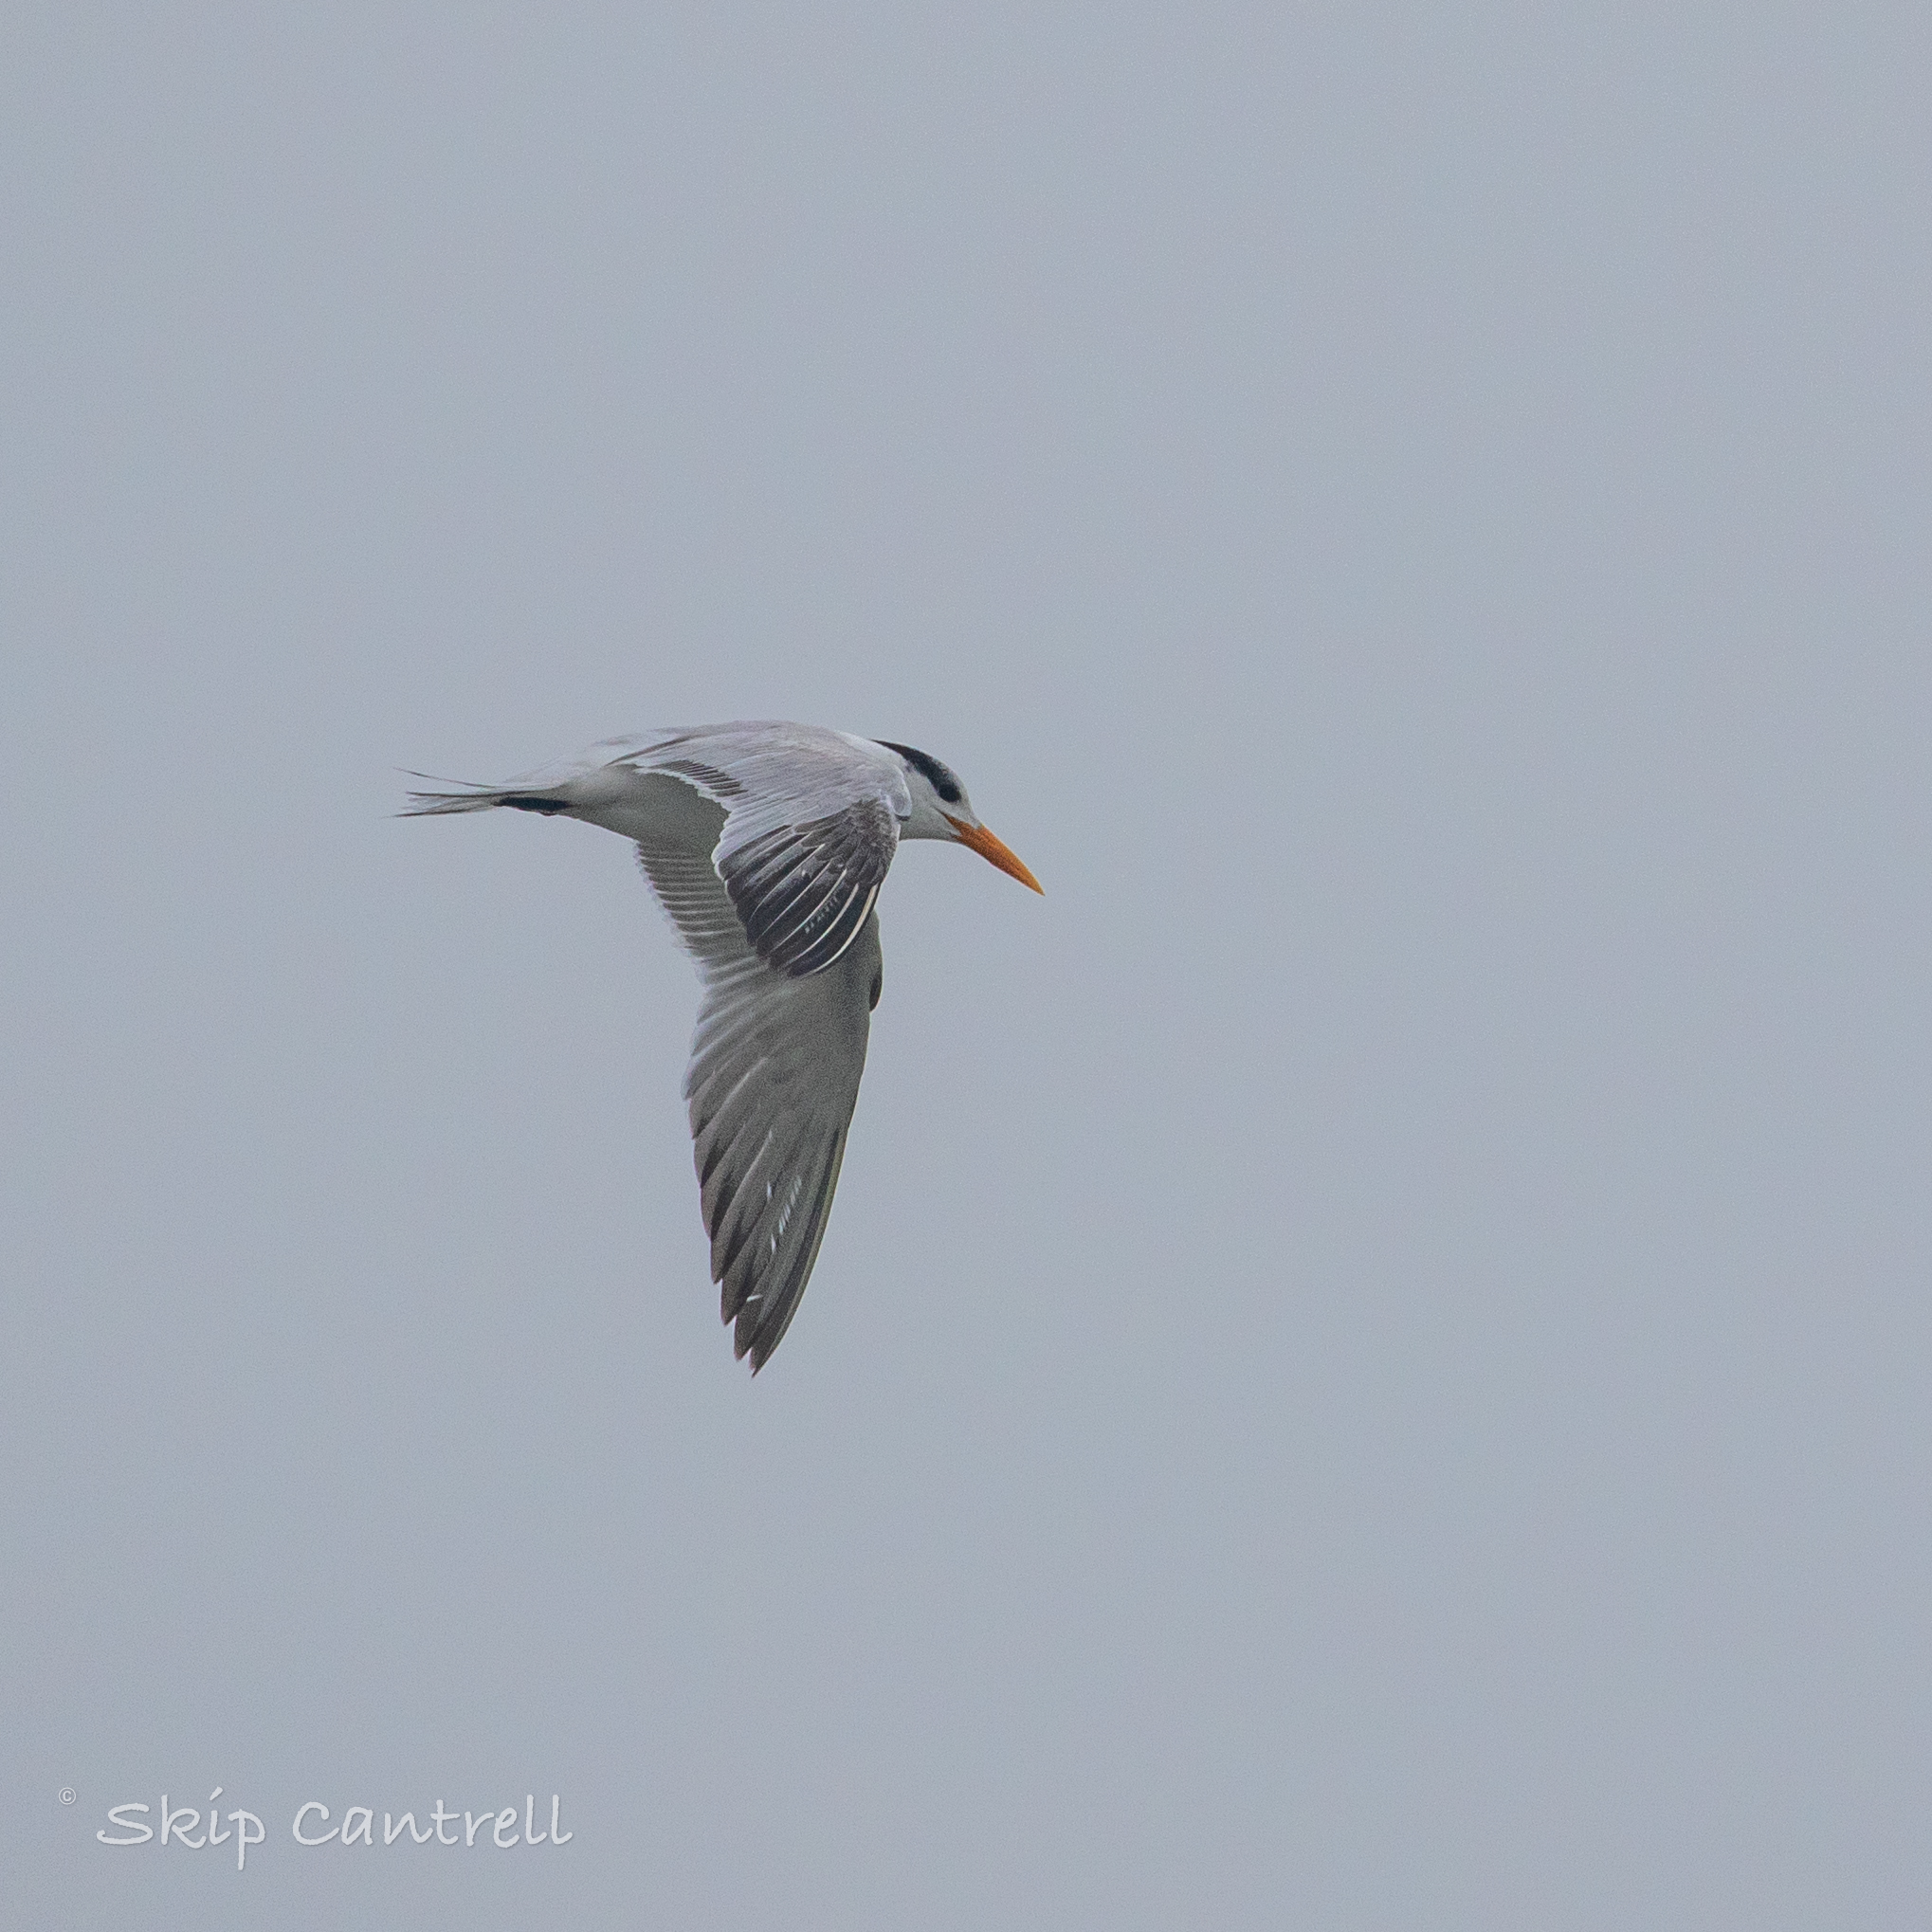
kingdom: Animalia
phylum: Chordata
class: Aves
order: Charadriiformes
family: Laridae
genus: Thalasseus
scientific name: Thalasseus maximus
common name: Royal tern
